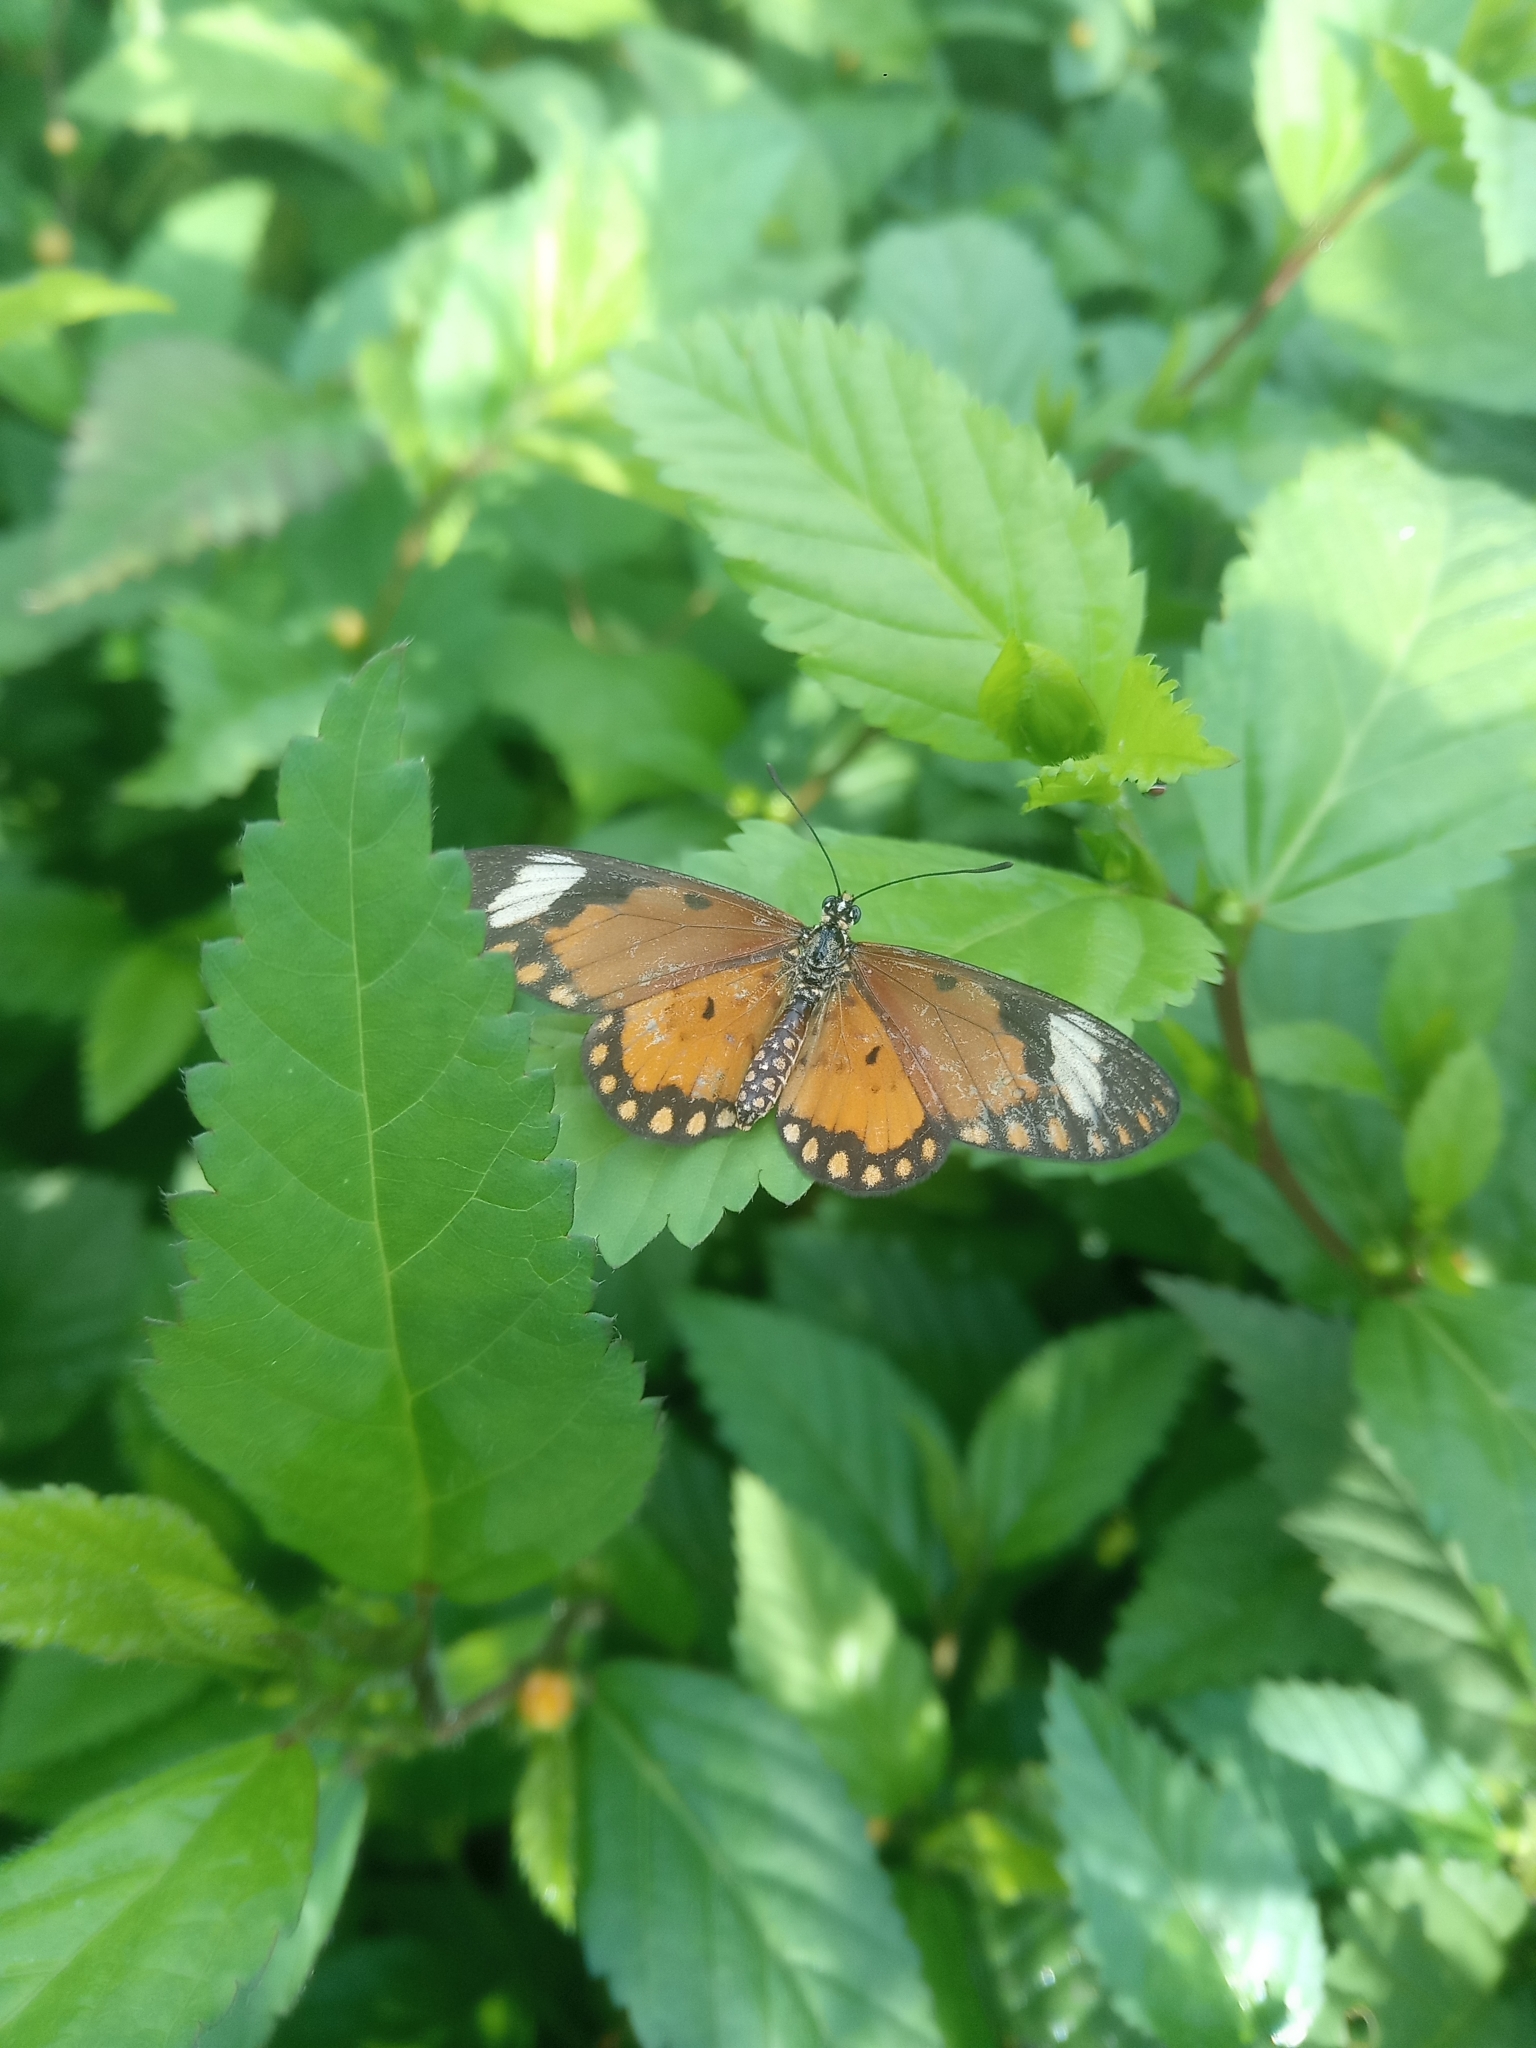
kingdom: Animalia
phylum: Arthropoda
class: Insecta
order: Lepidoptera
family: Nymphalidae
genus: Acraea
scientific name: Acraea Telchinia serena
